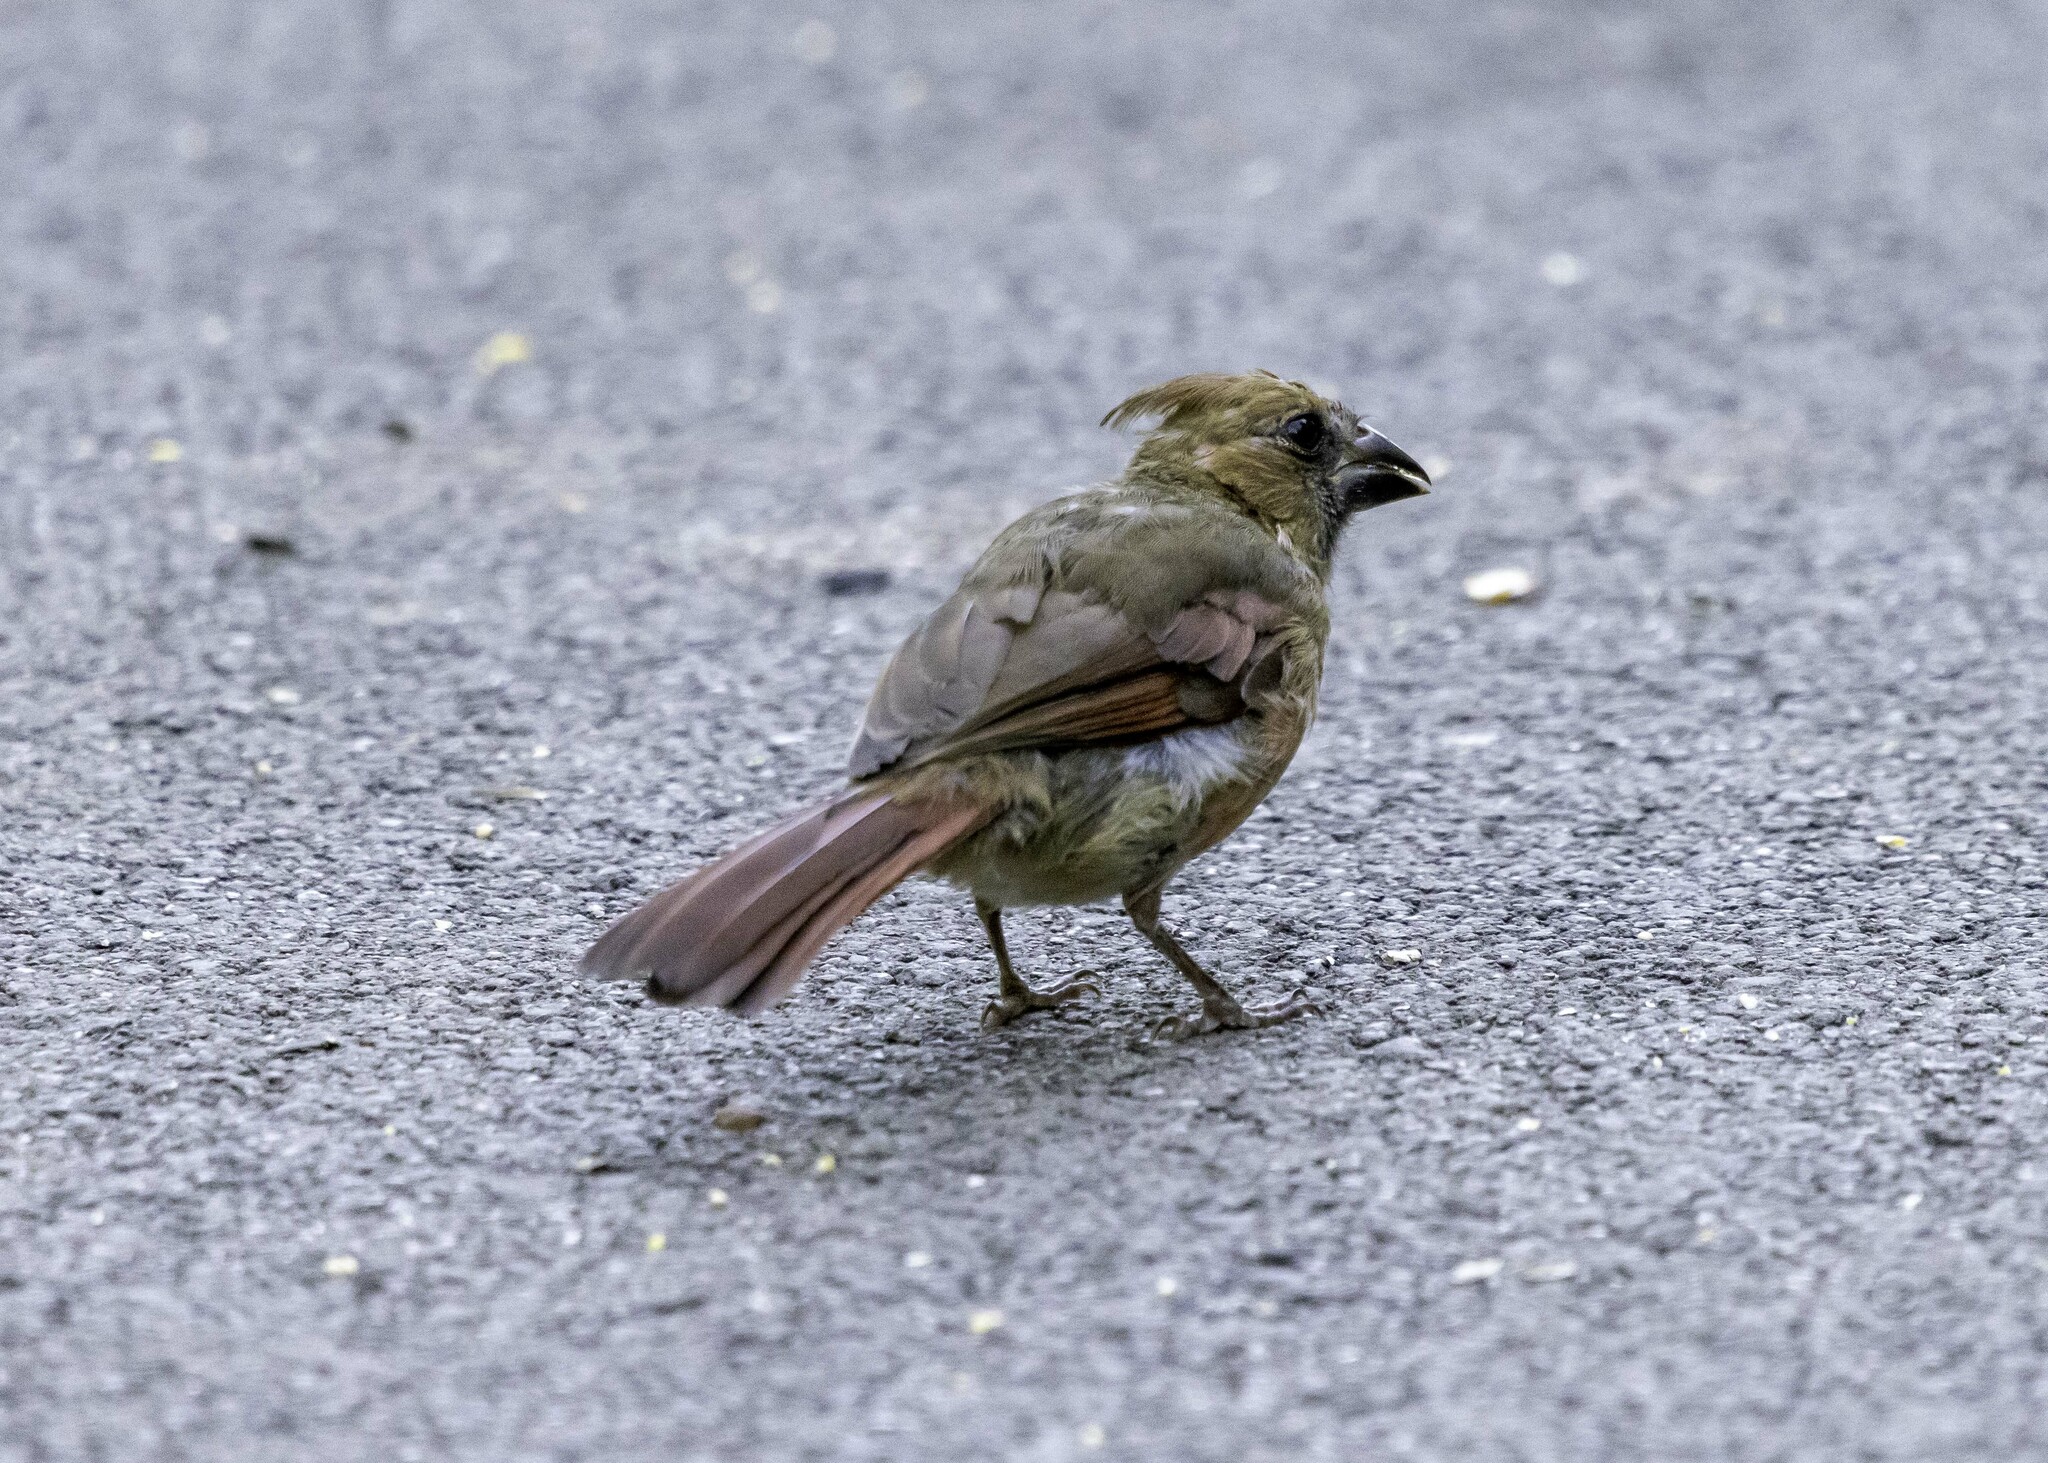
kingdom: Animalia
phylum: Chordata
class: Aves
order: Passeriformes
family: Cardinalidae
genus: Cardinalis
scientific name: Cardinalis cardinalis
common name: Northern cardinal
